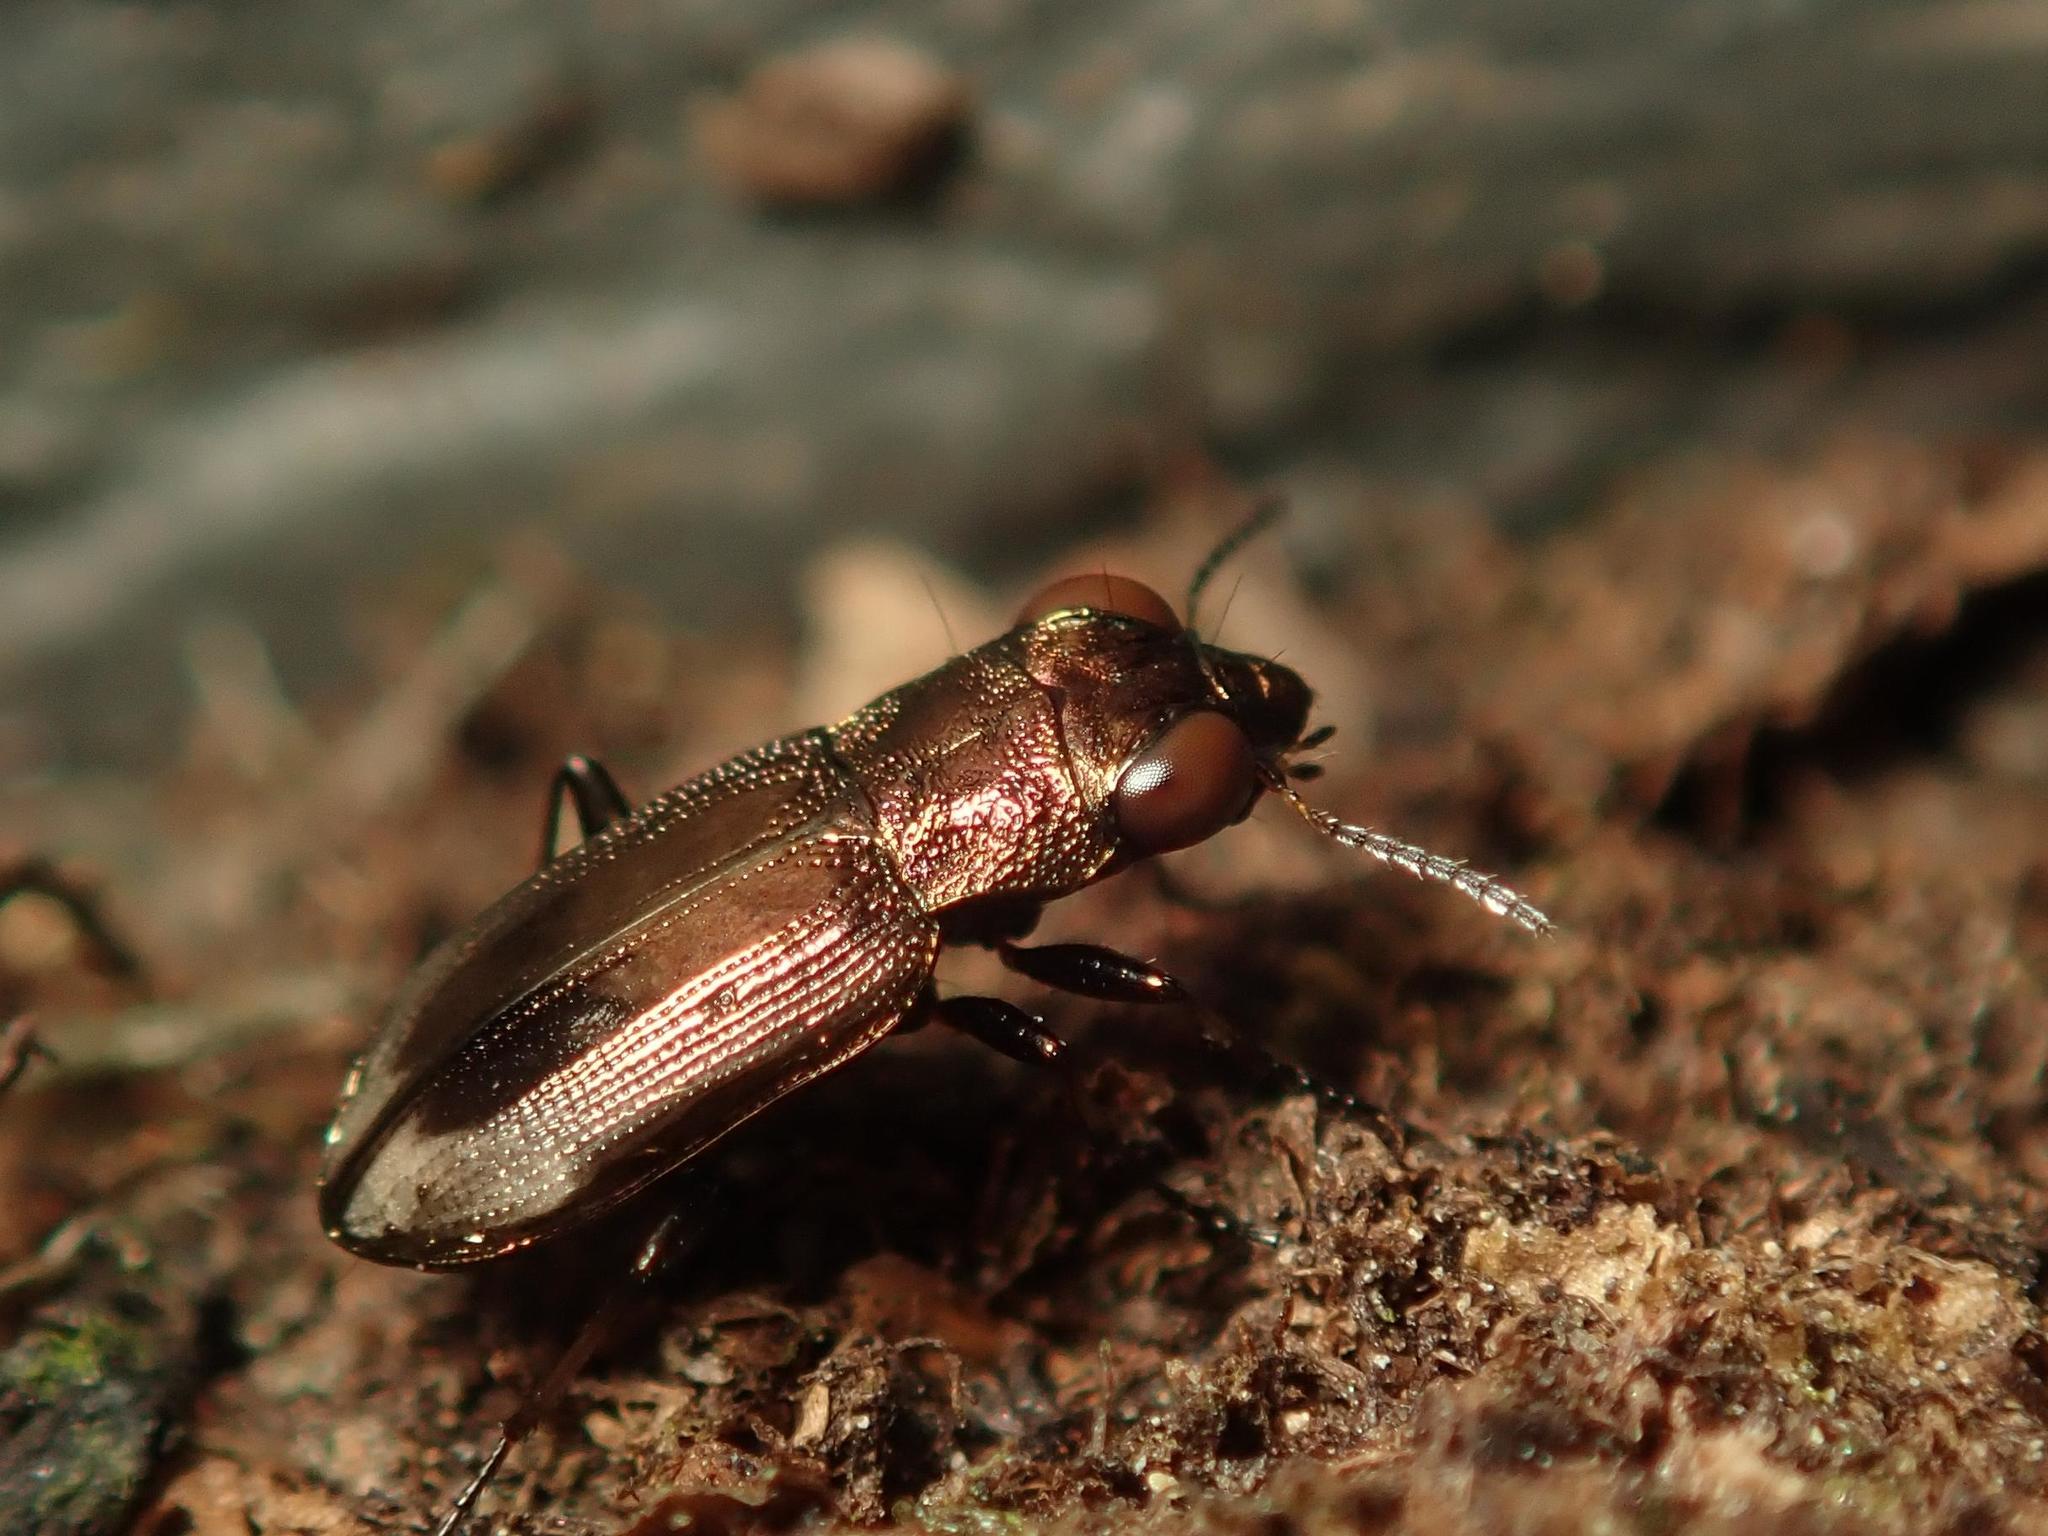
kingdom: Animalia
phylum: Arthropoda
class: Insecta
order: Coleoptera
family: Carabidae
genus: Notiophilus
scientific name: Notiophilus biguttatus
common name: Spotted gazelle beetle
